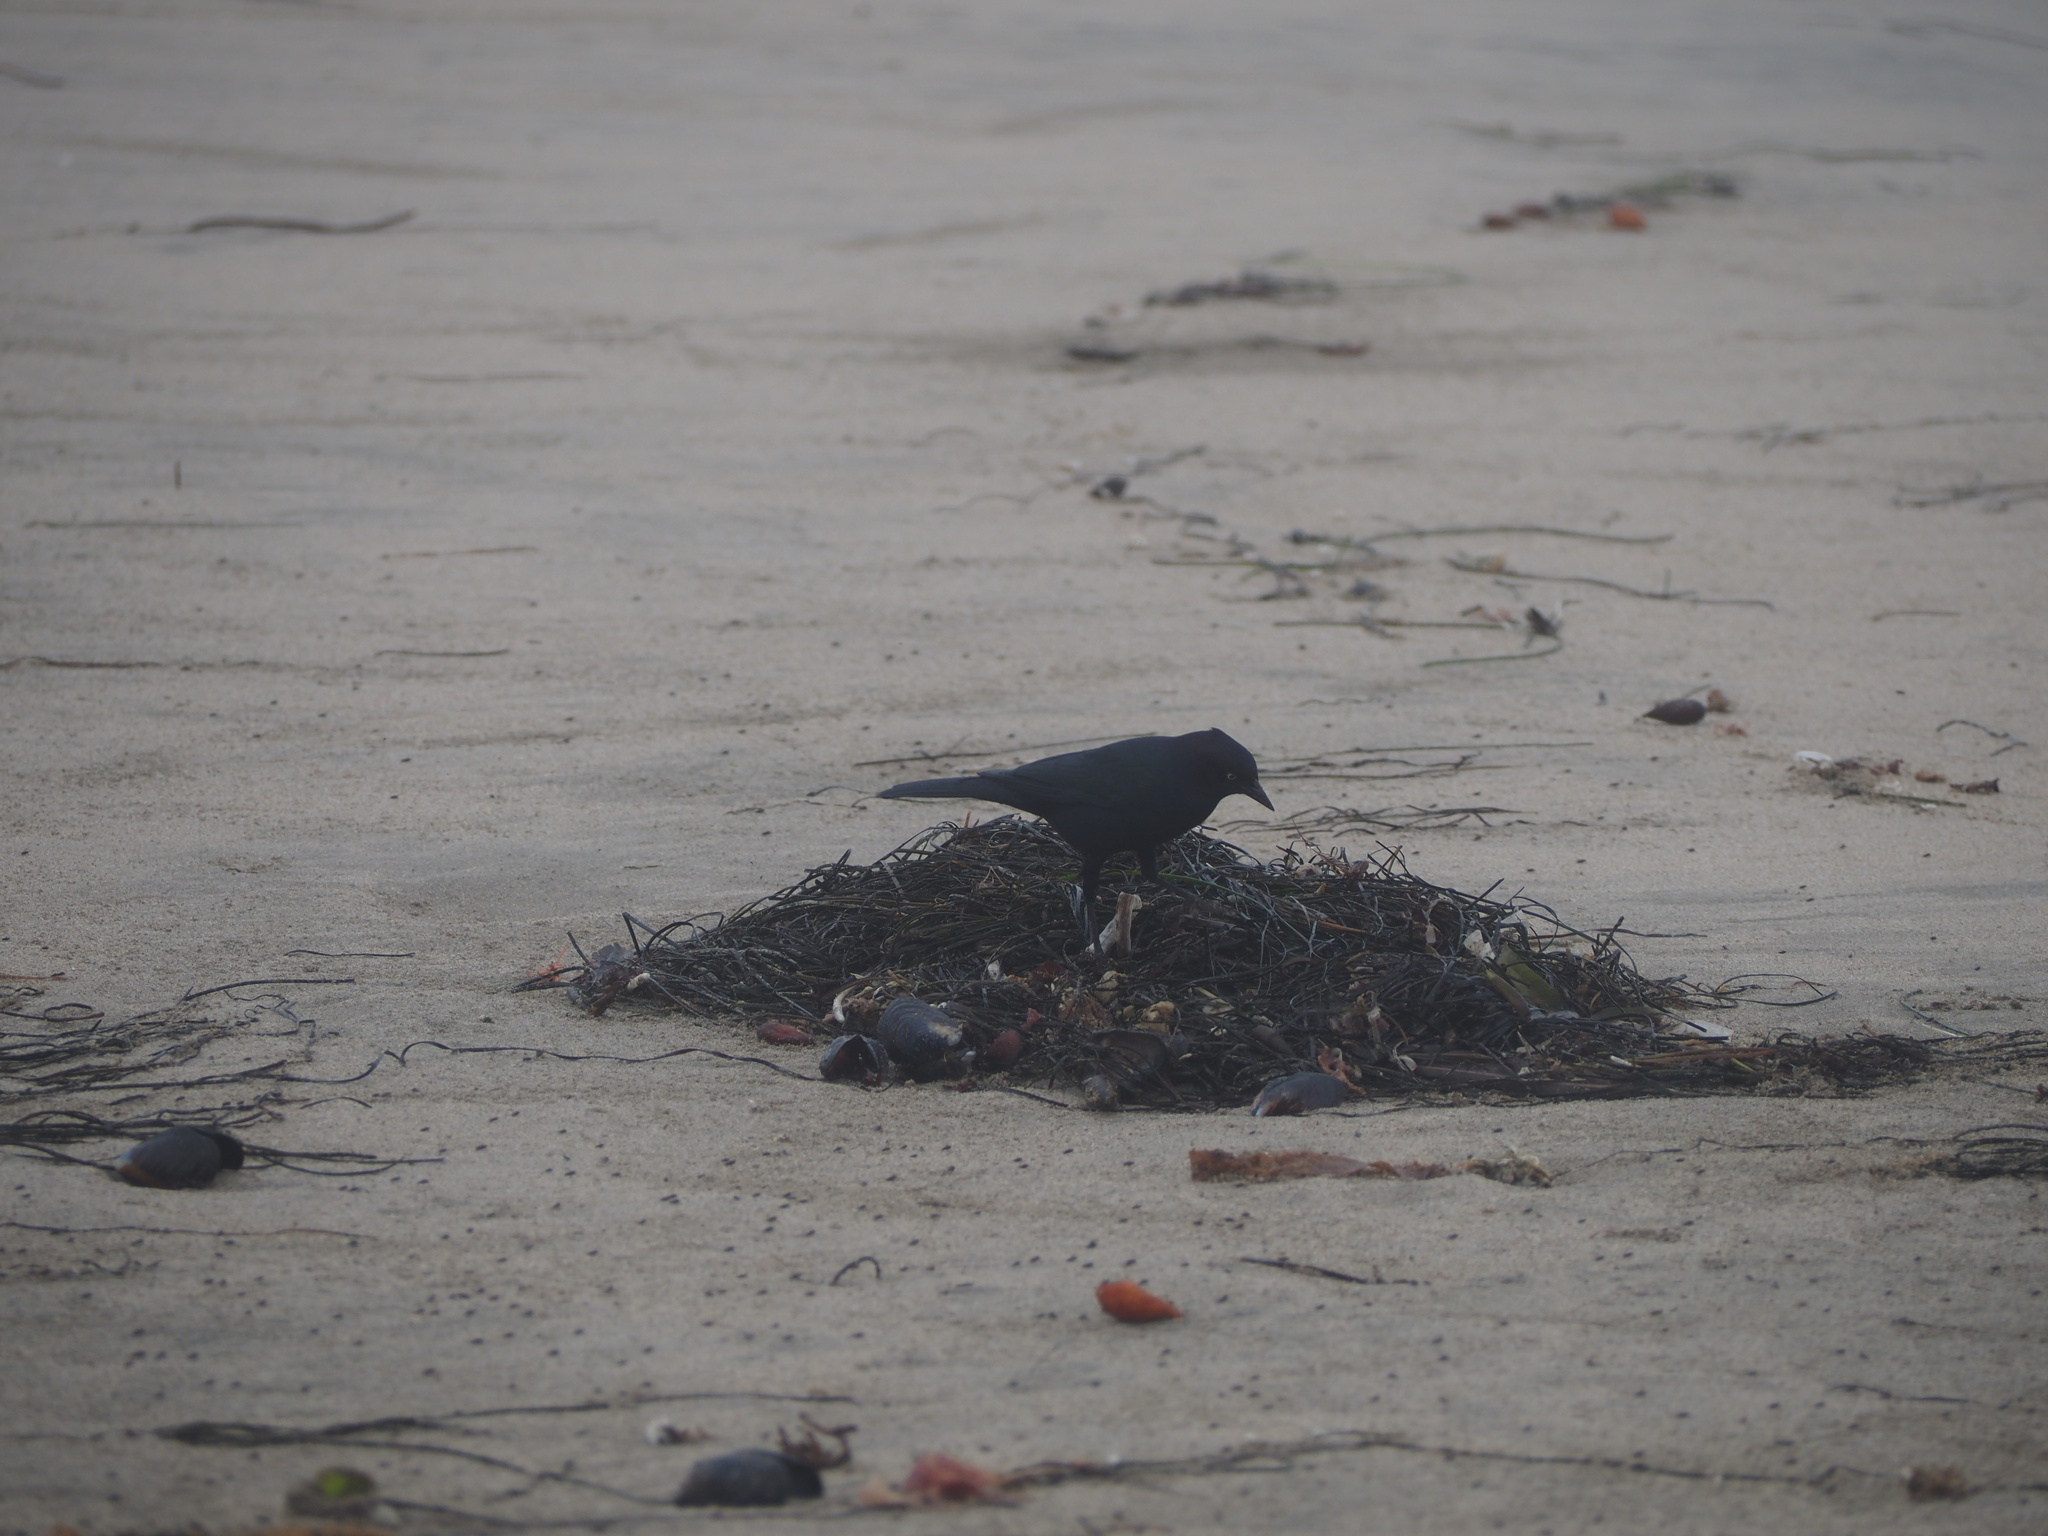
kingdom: Animalia
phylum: Chordata
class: Aves
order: Passeriformes
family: Icteridae
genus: Euphagus
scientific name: Euphagus cyanocephalus
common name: Brewer's blackbird
